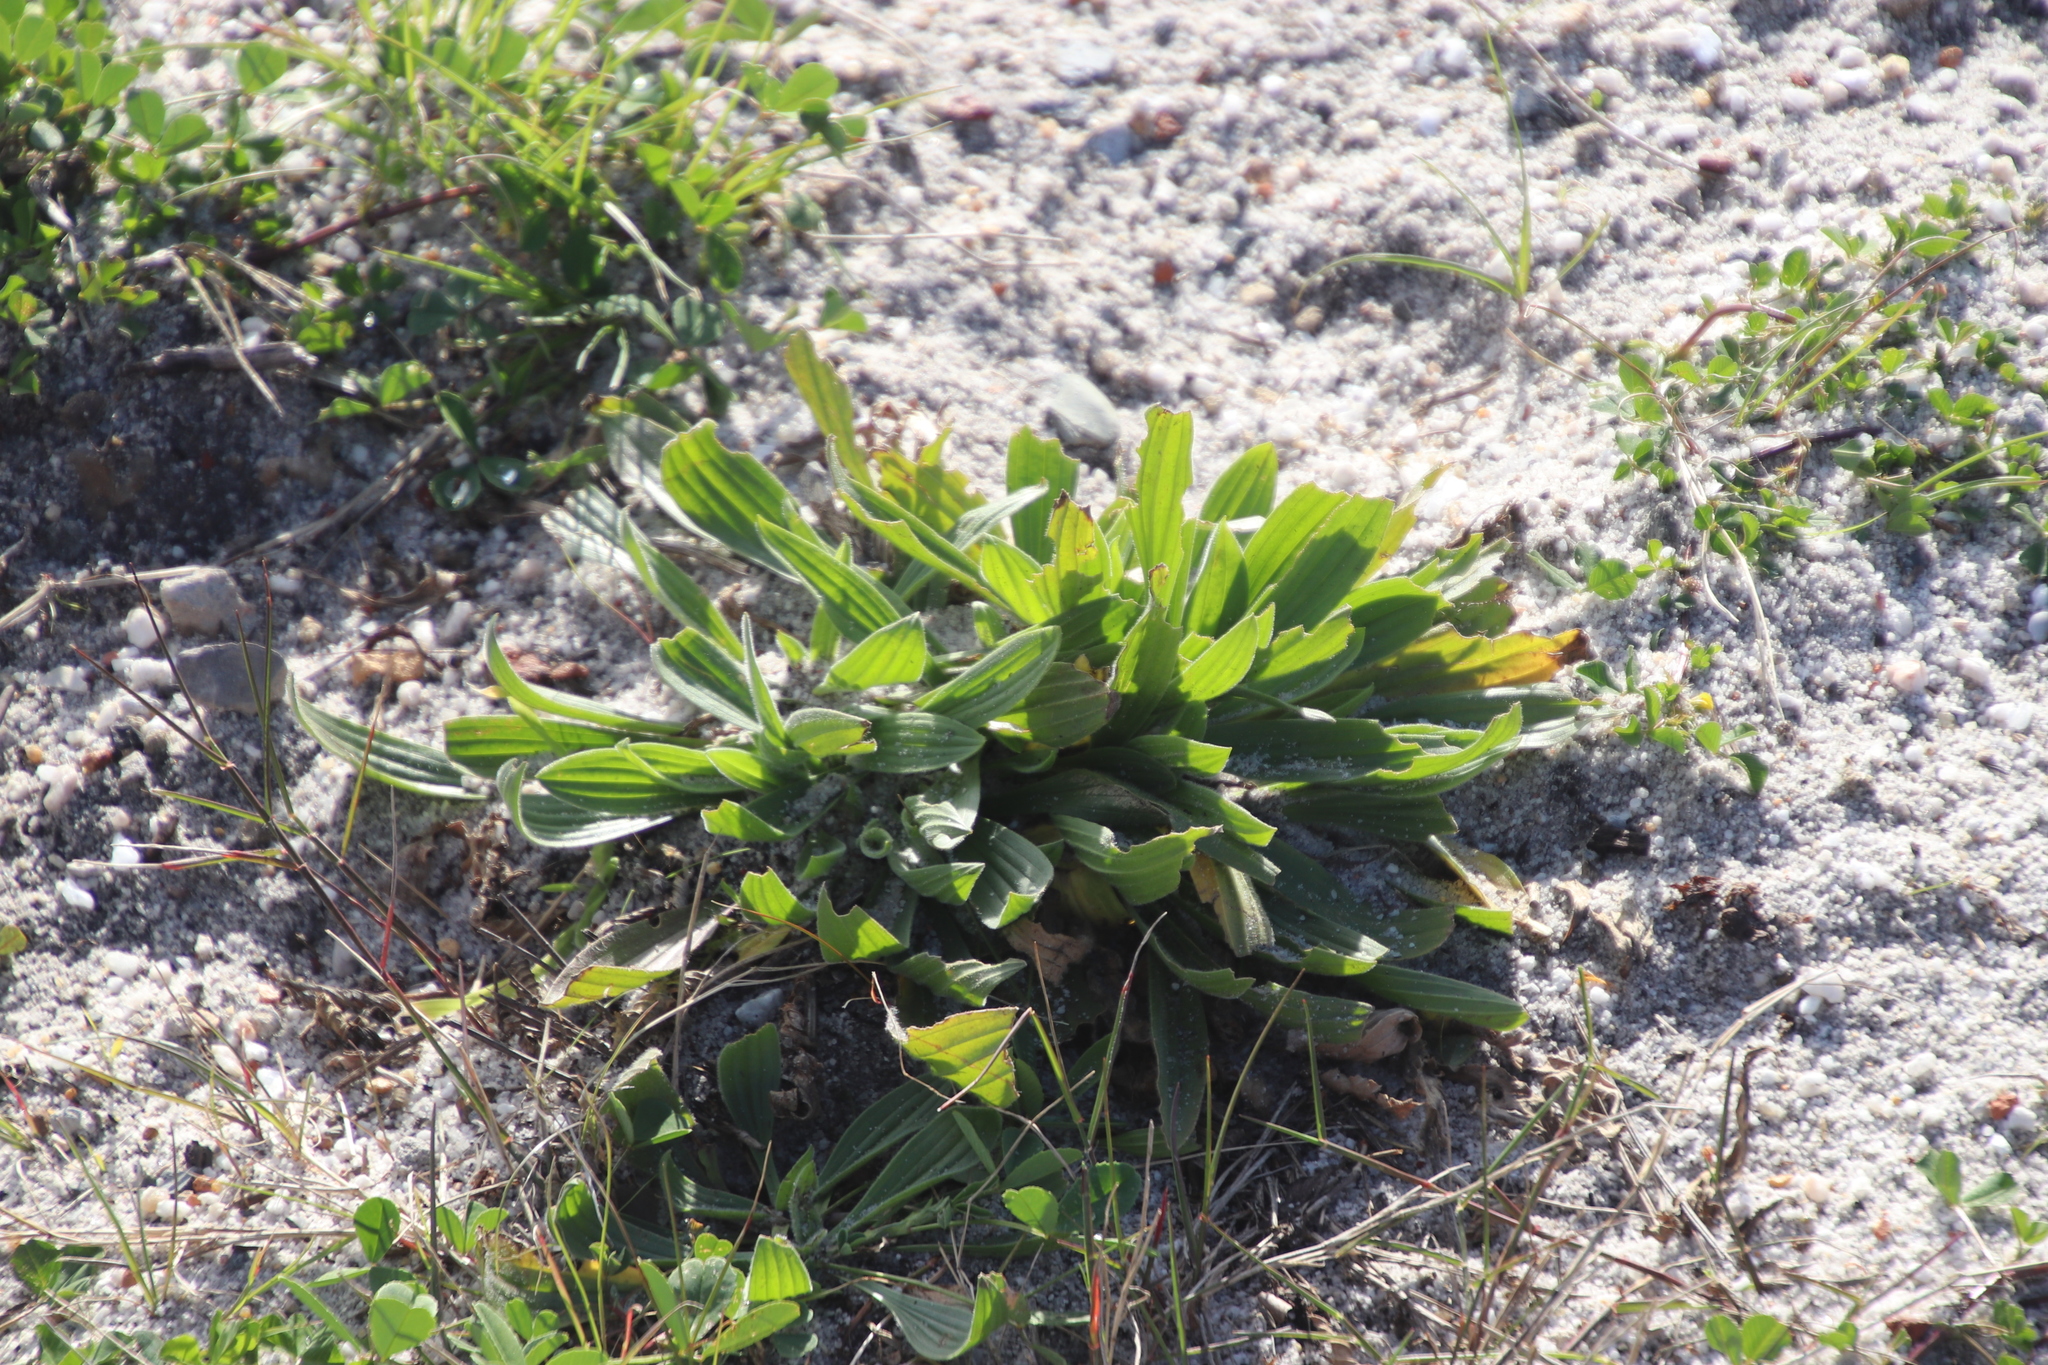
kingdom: Plantae
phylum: Tracheophyta
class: Magnoliopsida
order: Lamiales
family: Plantaginaceae
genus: Plantago
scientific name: Plantago lanceolata
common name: Ribwort plantain
